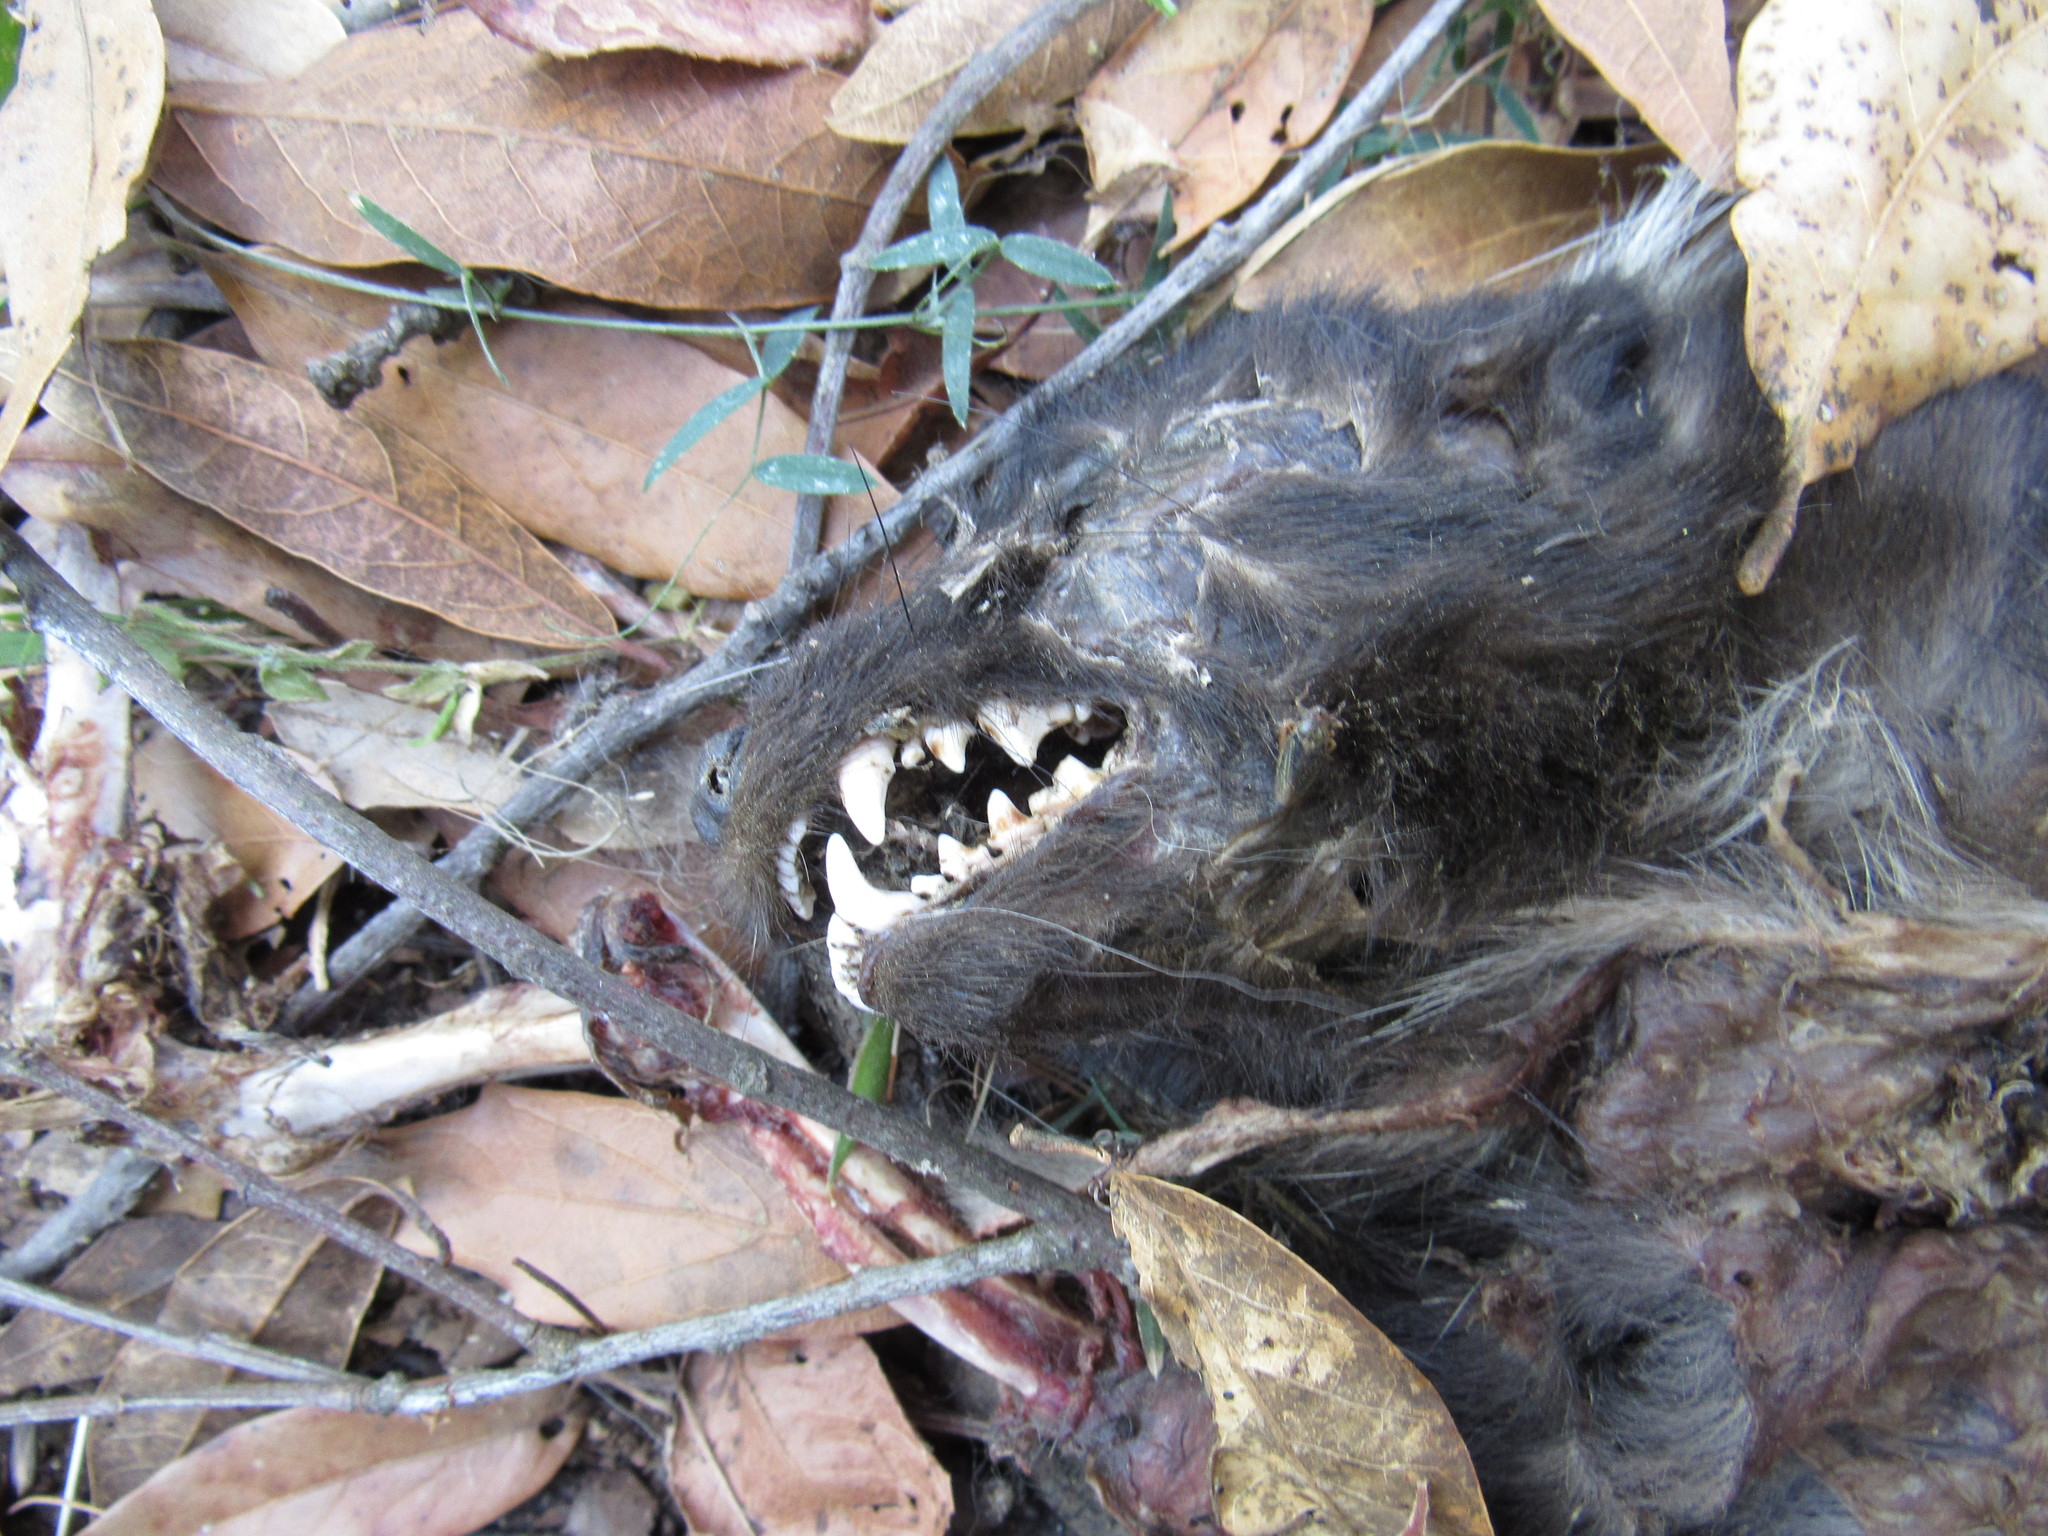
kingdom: Animalia
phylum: Chordata
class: Mammalia
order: Carnivora
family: Mephitidae
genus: Mephitis
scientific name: Mephitis macroura
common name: Hooded skunk
